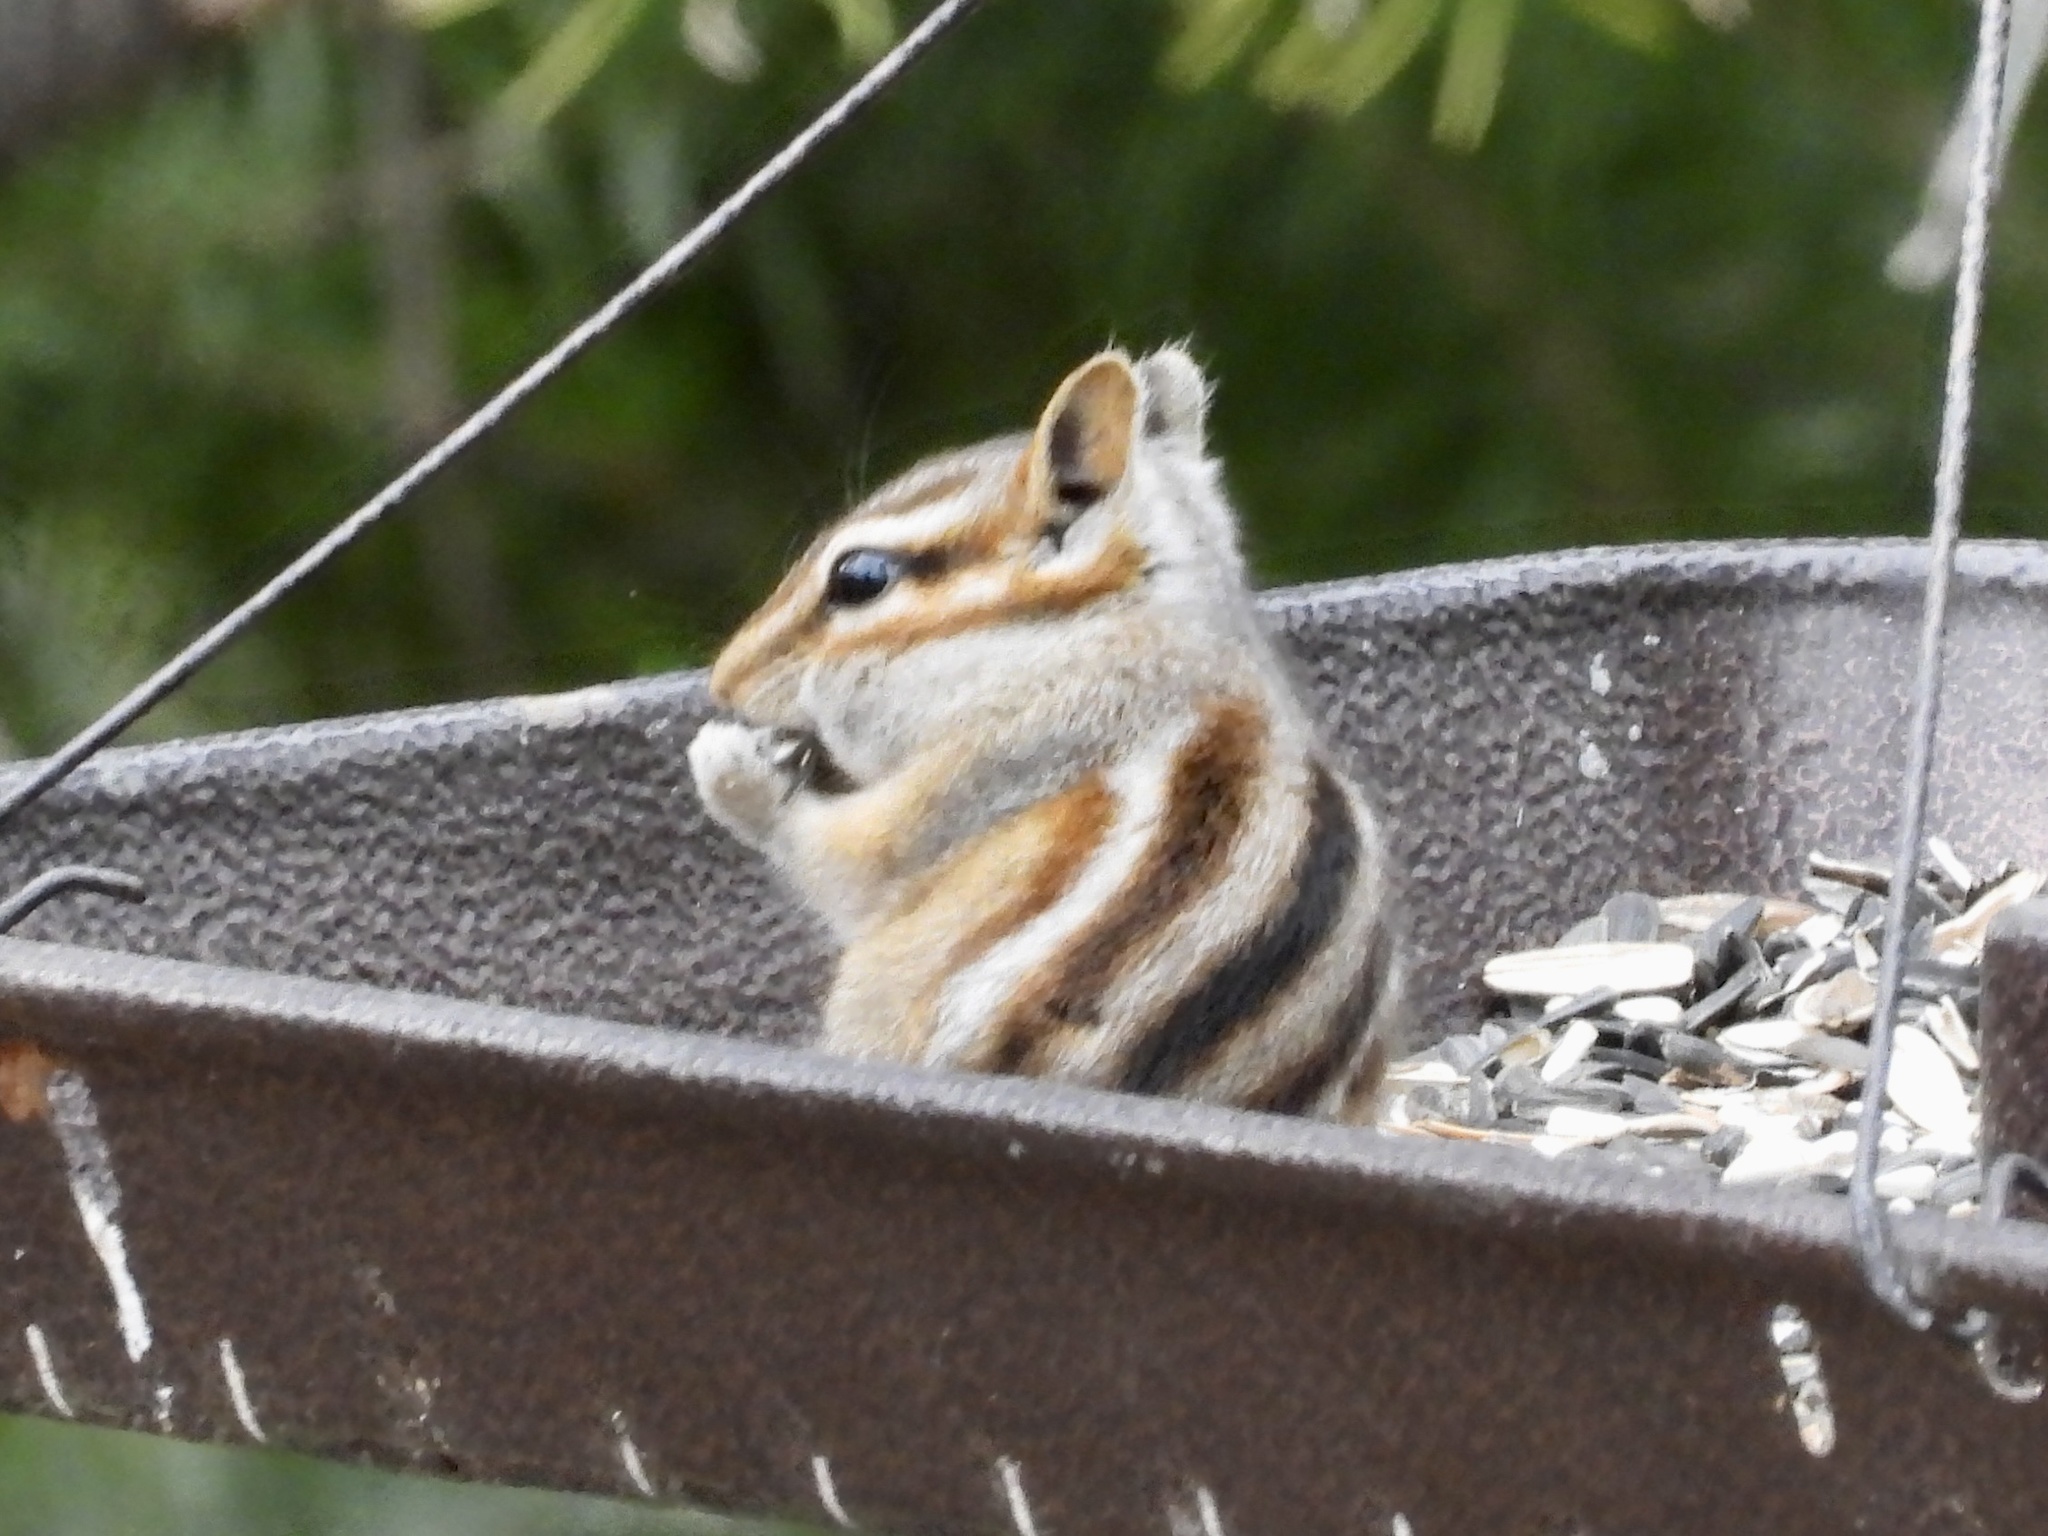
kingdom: Animalia
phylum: Chordata
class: Mammalia
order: Rodentia
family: Sciuridae
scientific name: Sciuridae
